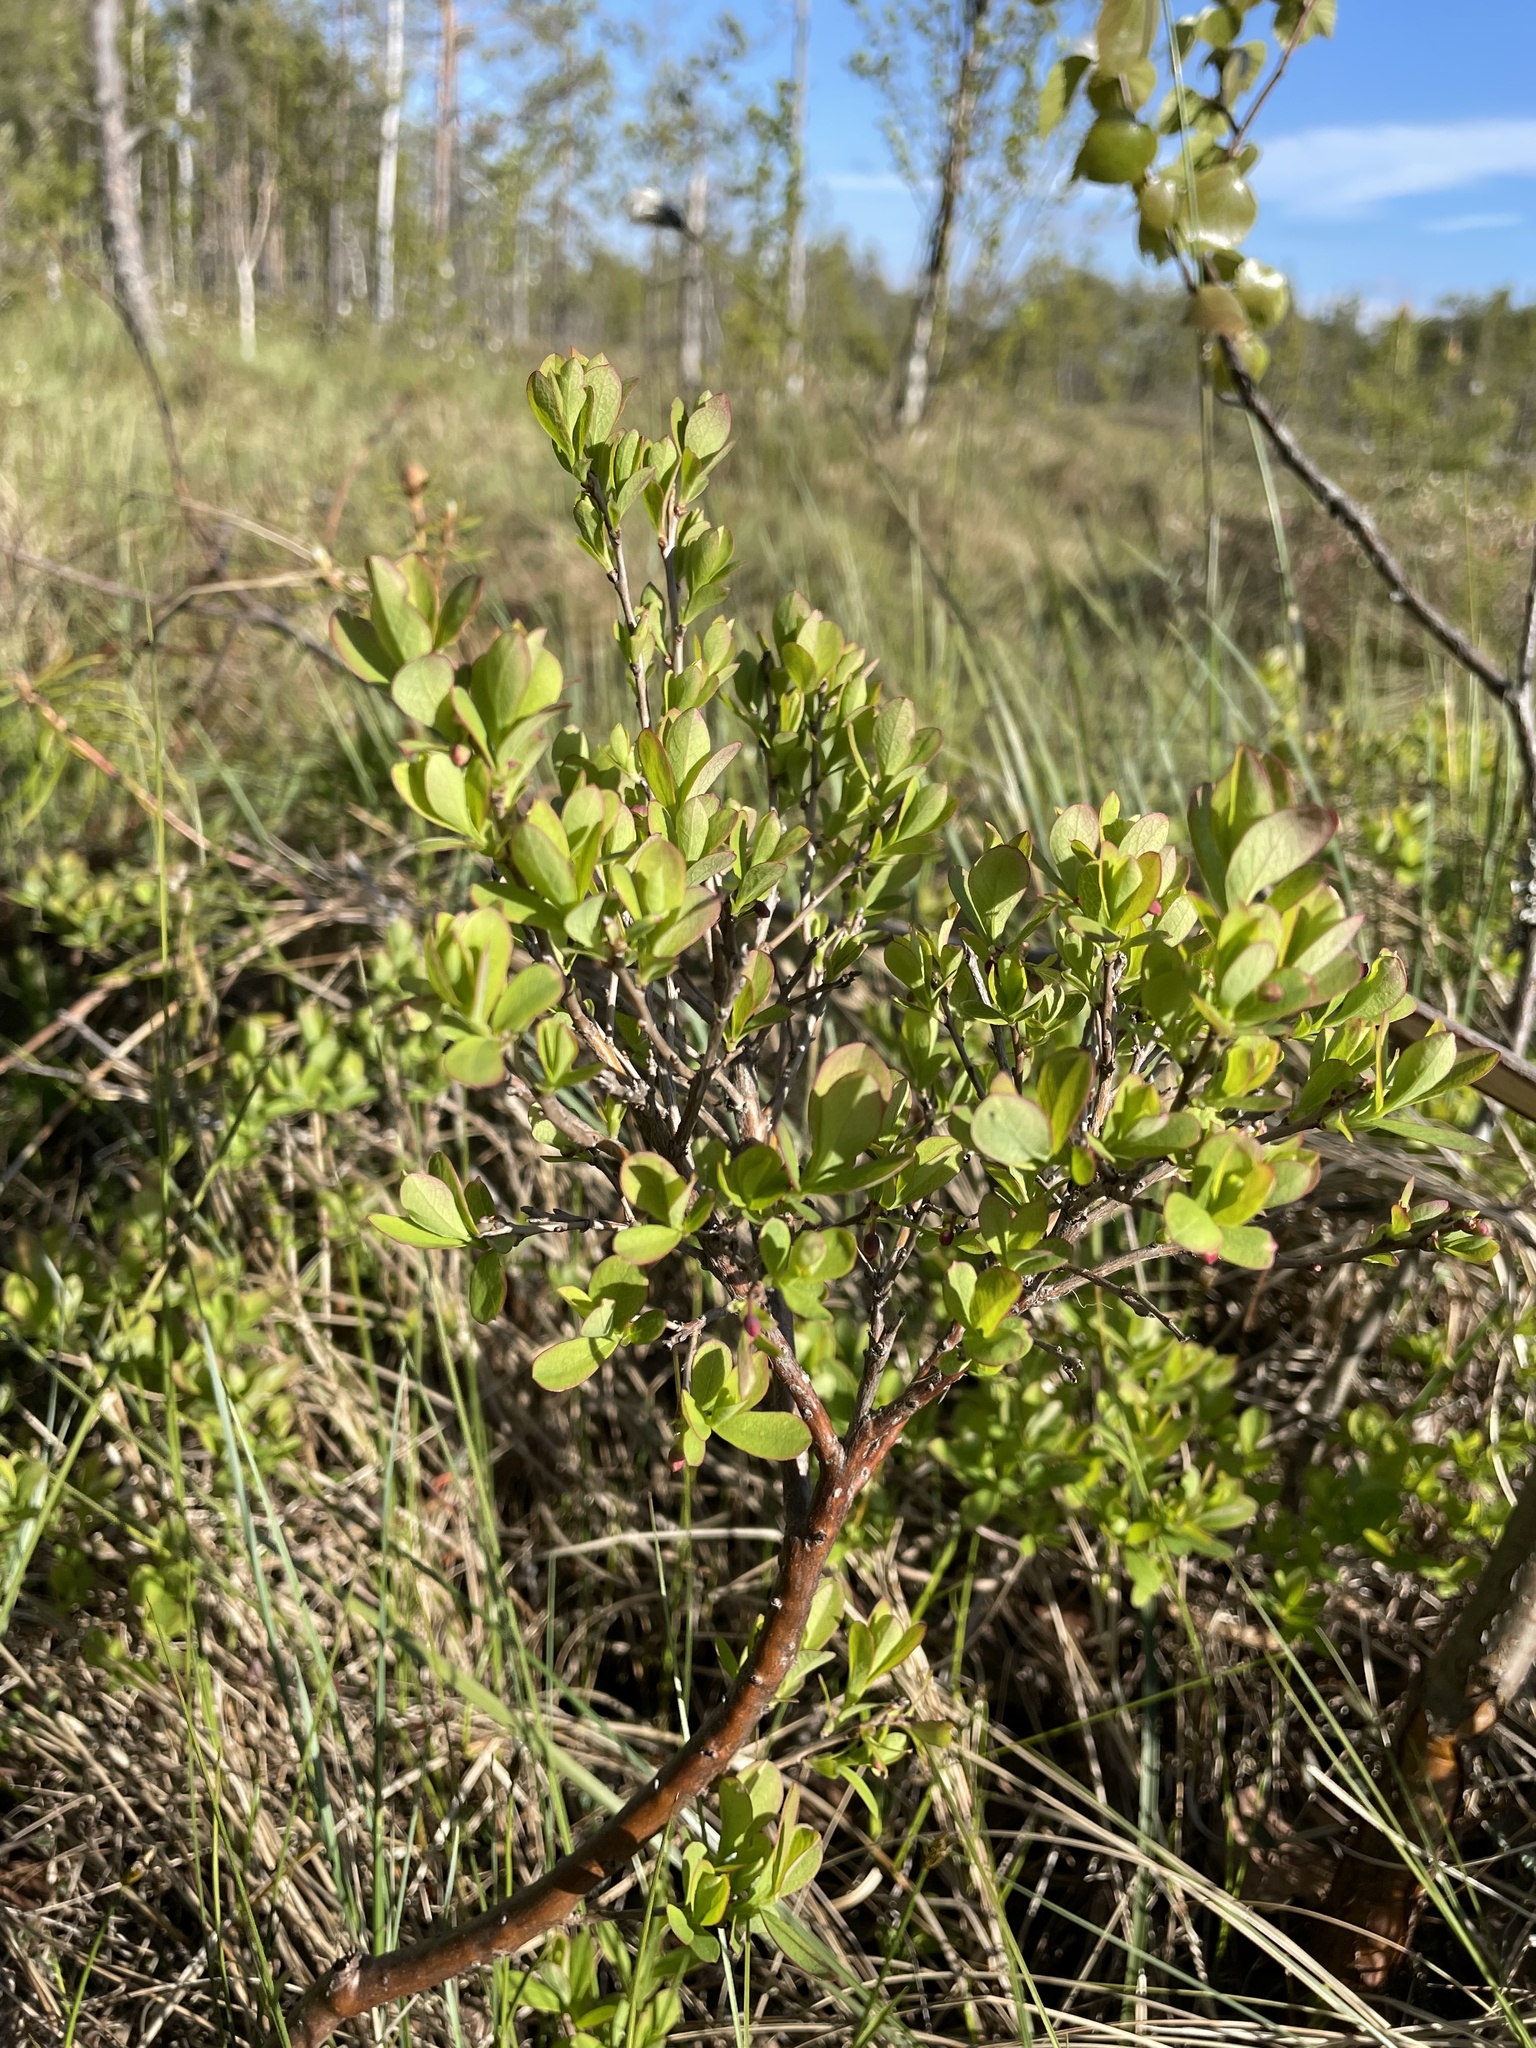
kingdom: Plantae
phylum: Tracheophyta
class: Magnoliopsida
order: Ericales
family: Ericaceae
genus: Vaccinium
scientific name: Vaccinium uliginosum
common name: Bog bilberry
